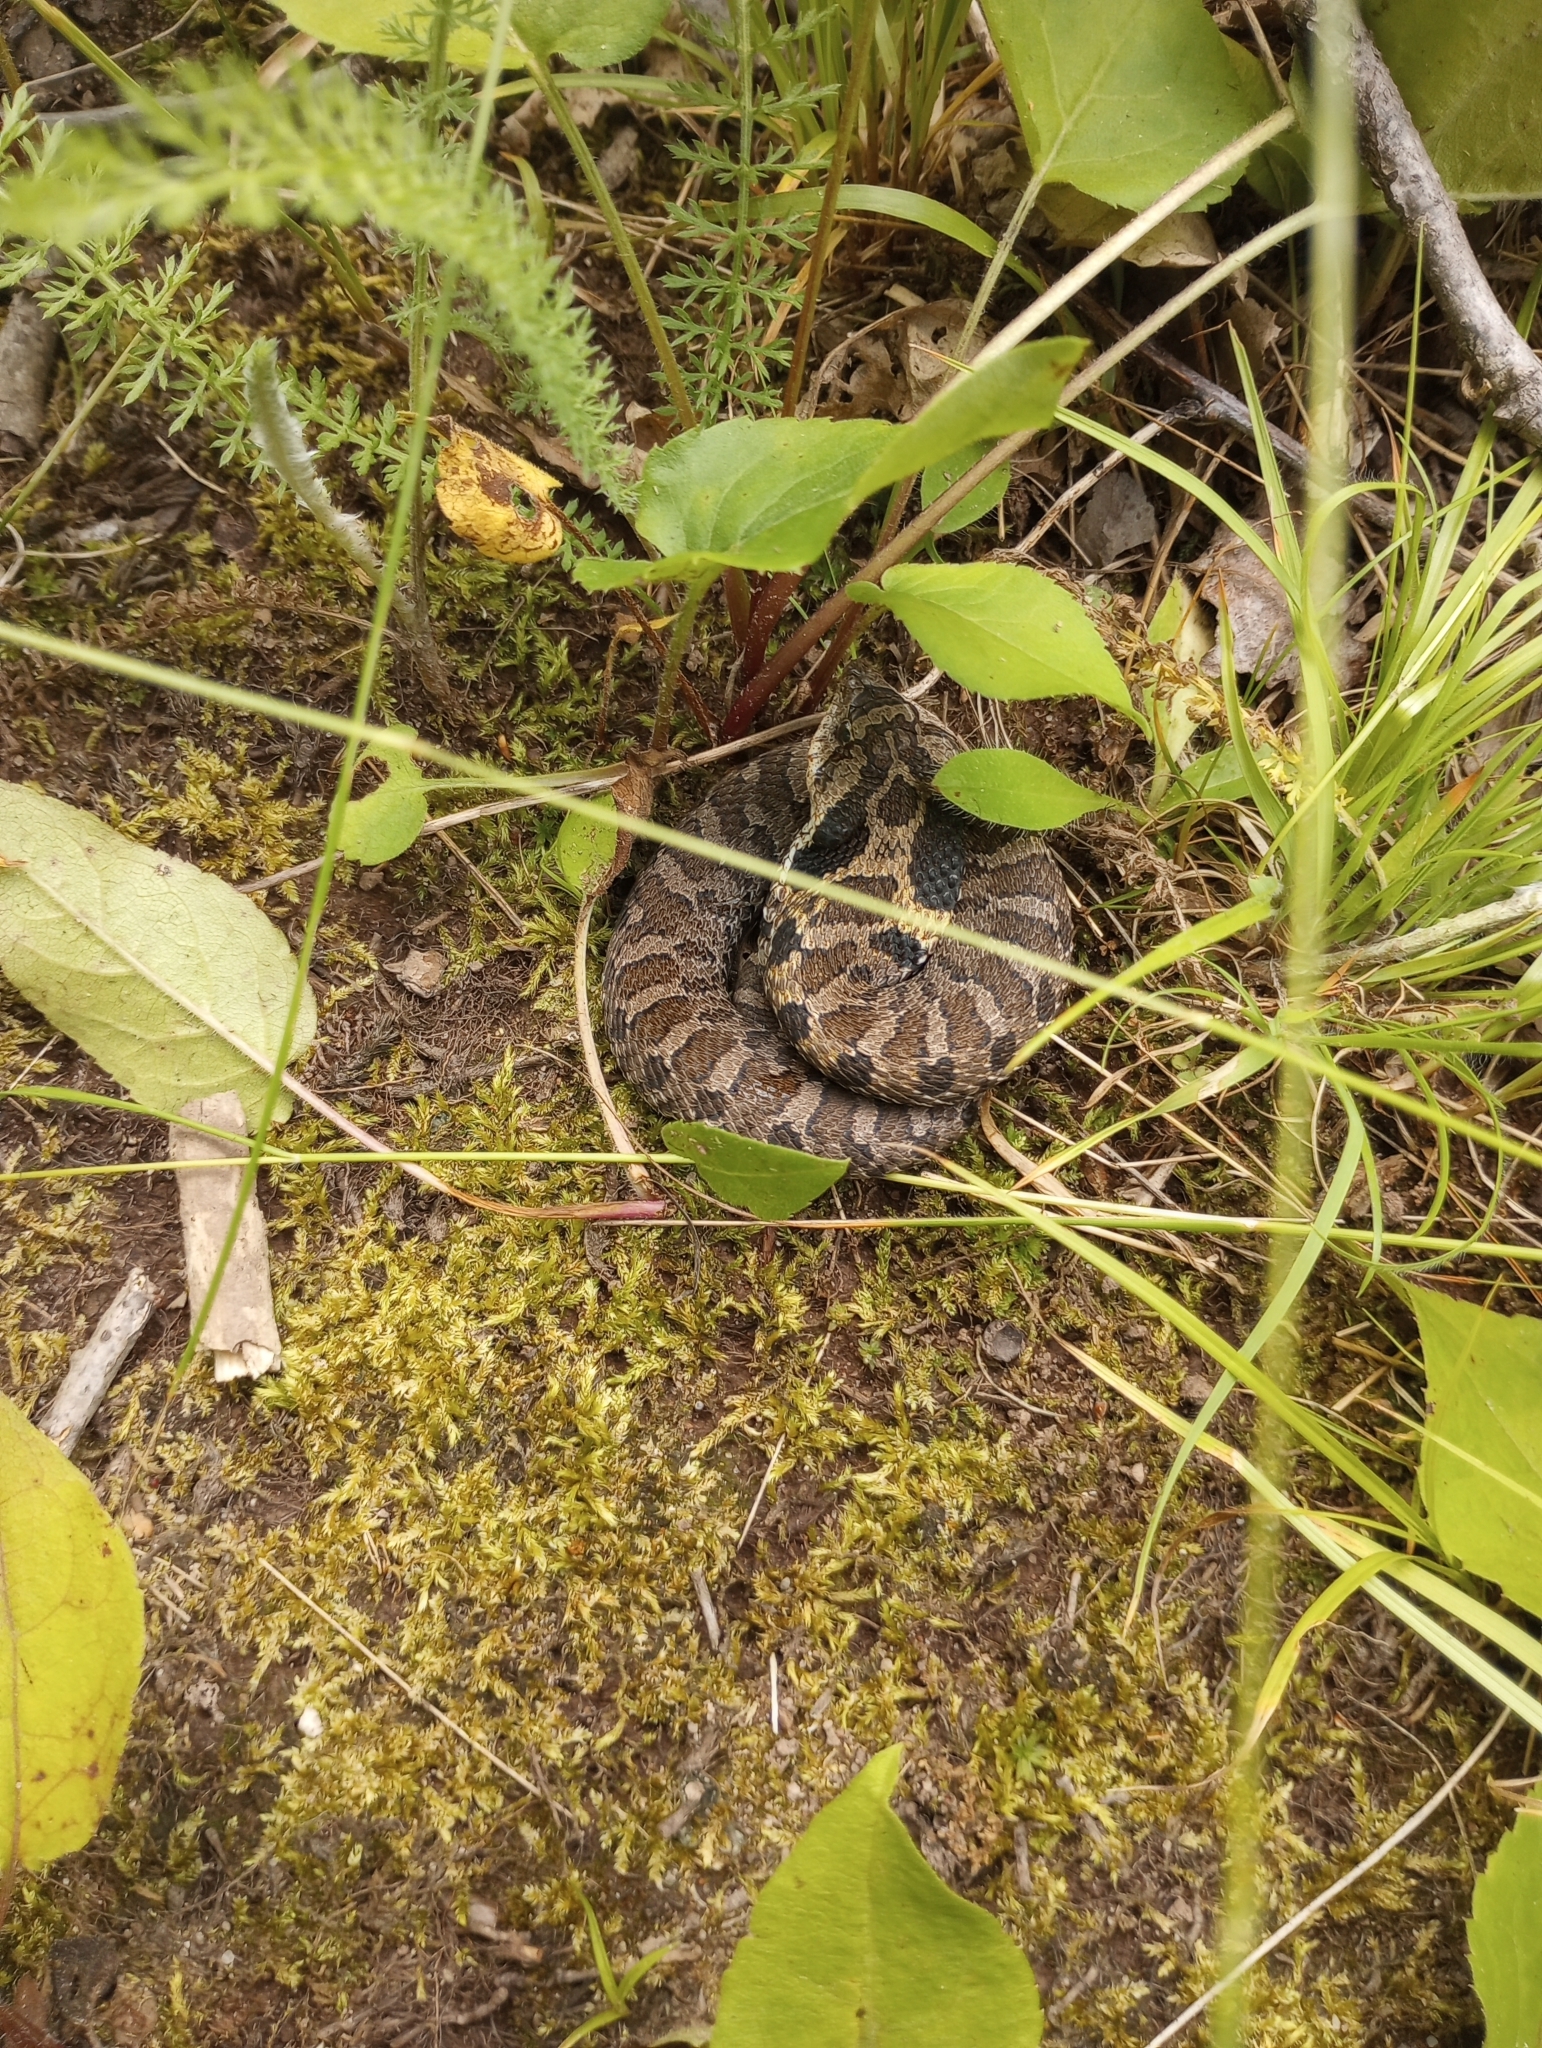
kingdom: Animalia
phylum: Chordata
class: Squamata
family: Colubridae
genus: Heterodon
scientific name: Heterodon platirhinos
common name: Eastern hognose snake
